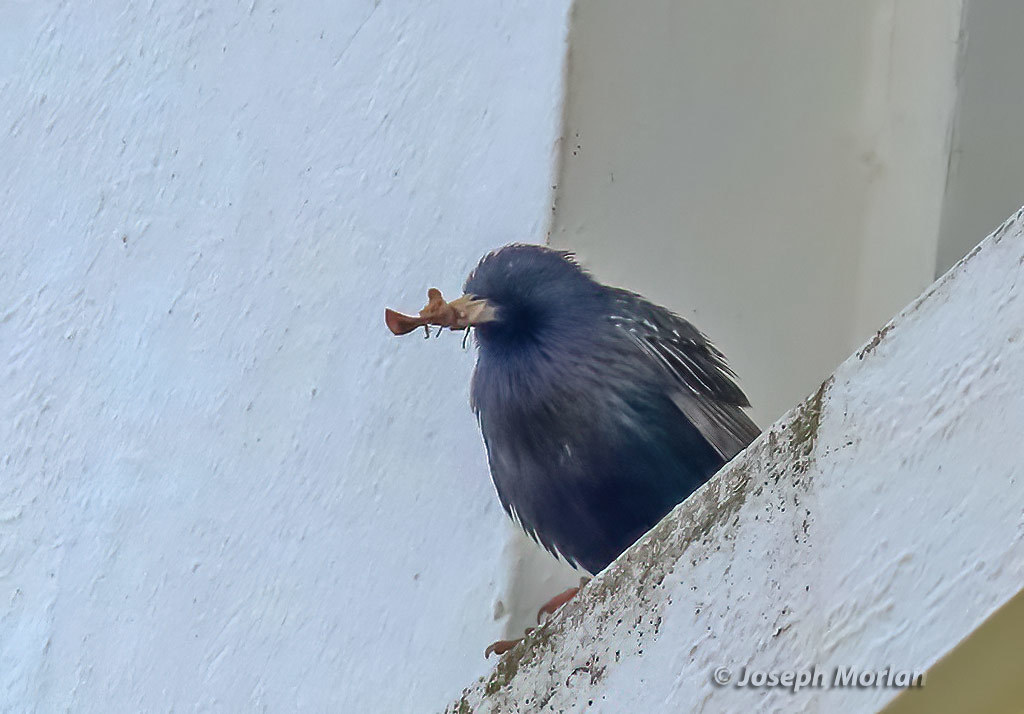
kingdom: Animalia
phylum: Chordata
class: Aves
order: Passeriformes
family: Sturnidae
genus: Sturnus
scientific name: Sturnus vulgaris
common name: Common starling
